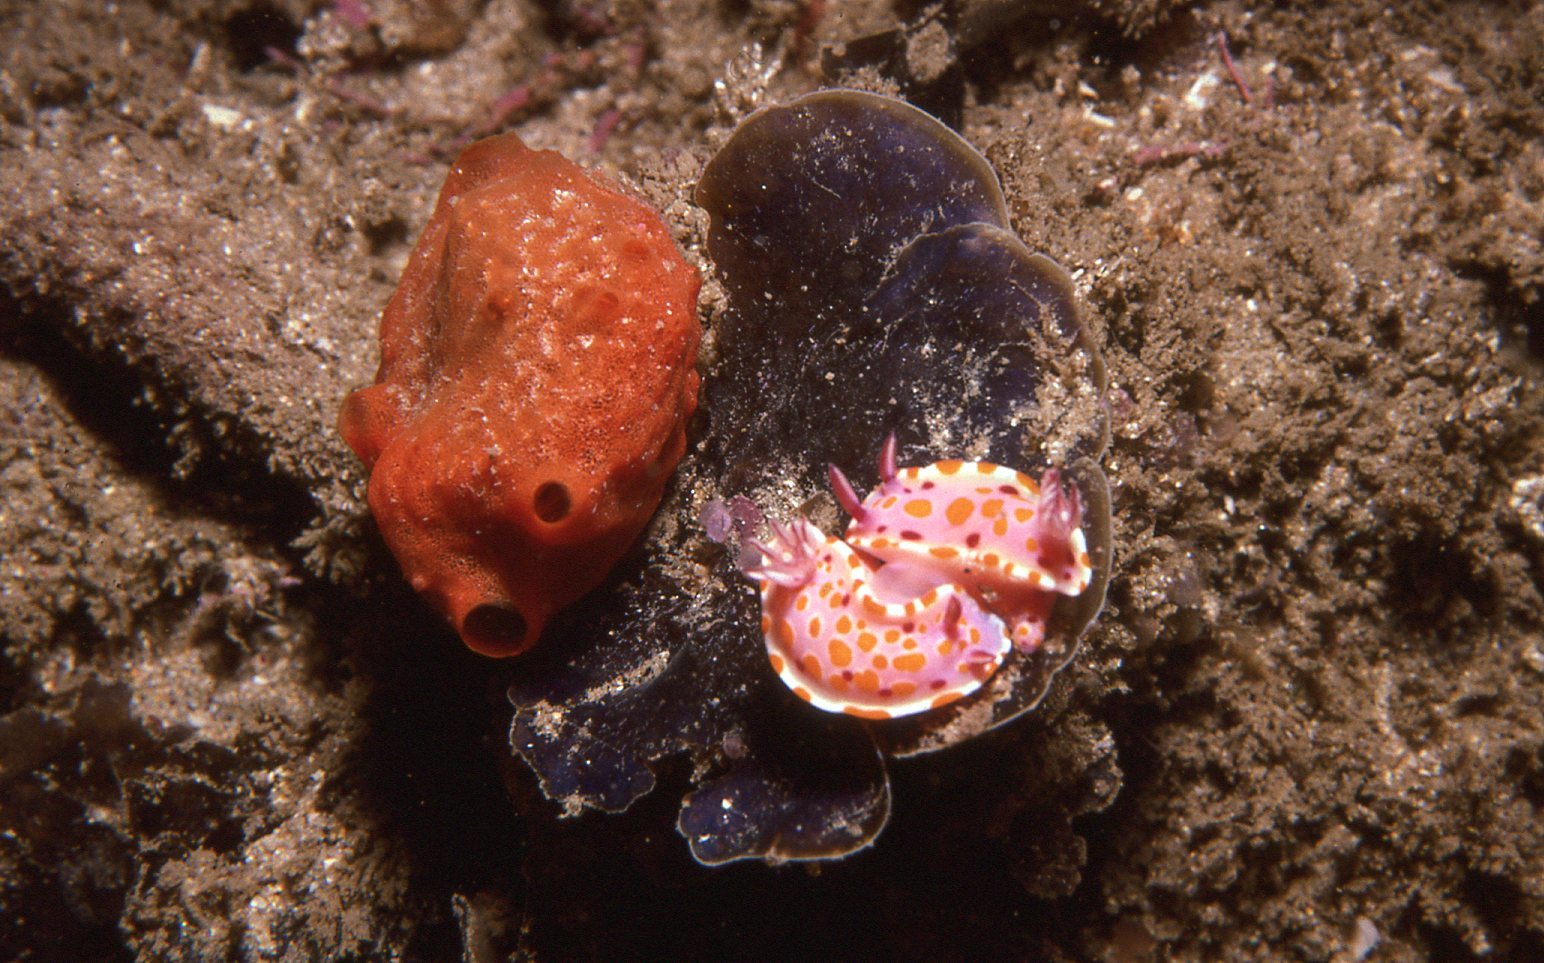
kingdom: Animalia
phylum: Mollusca
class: Gastropoda
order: Nudibranchia
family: Chromodorididae
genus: Ceratosoma
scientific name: Ceratosoma amoenum
